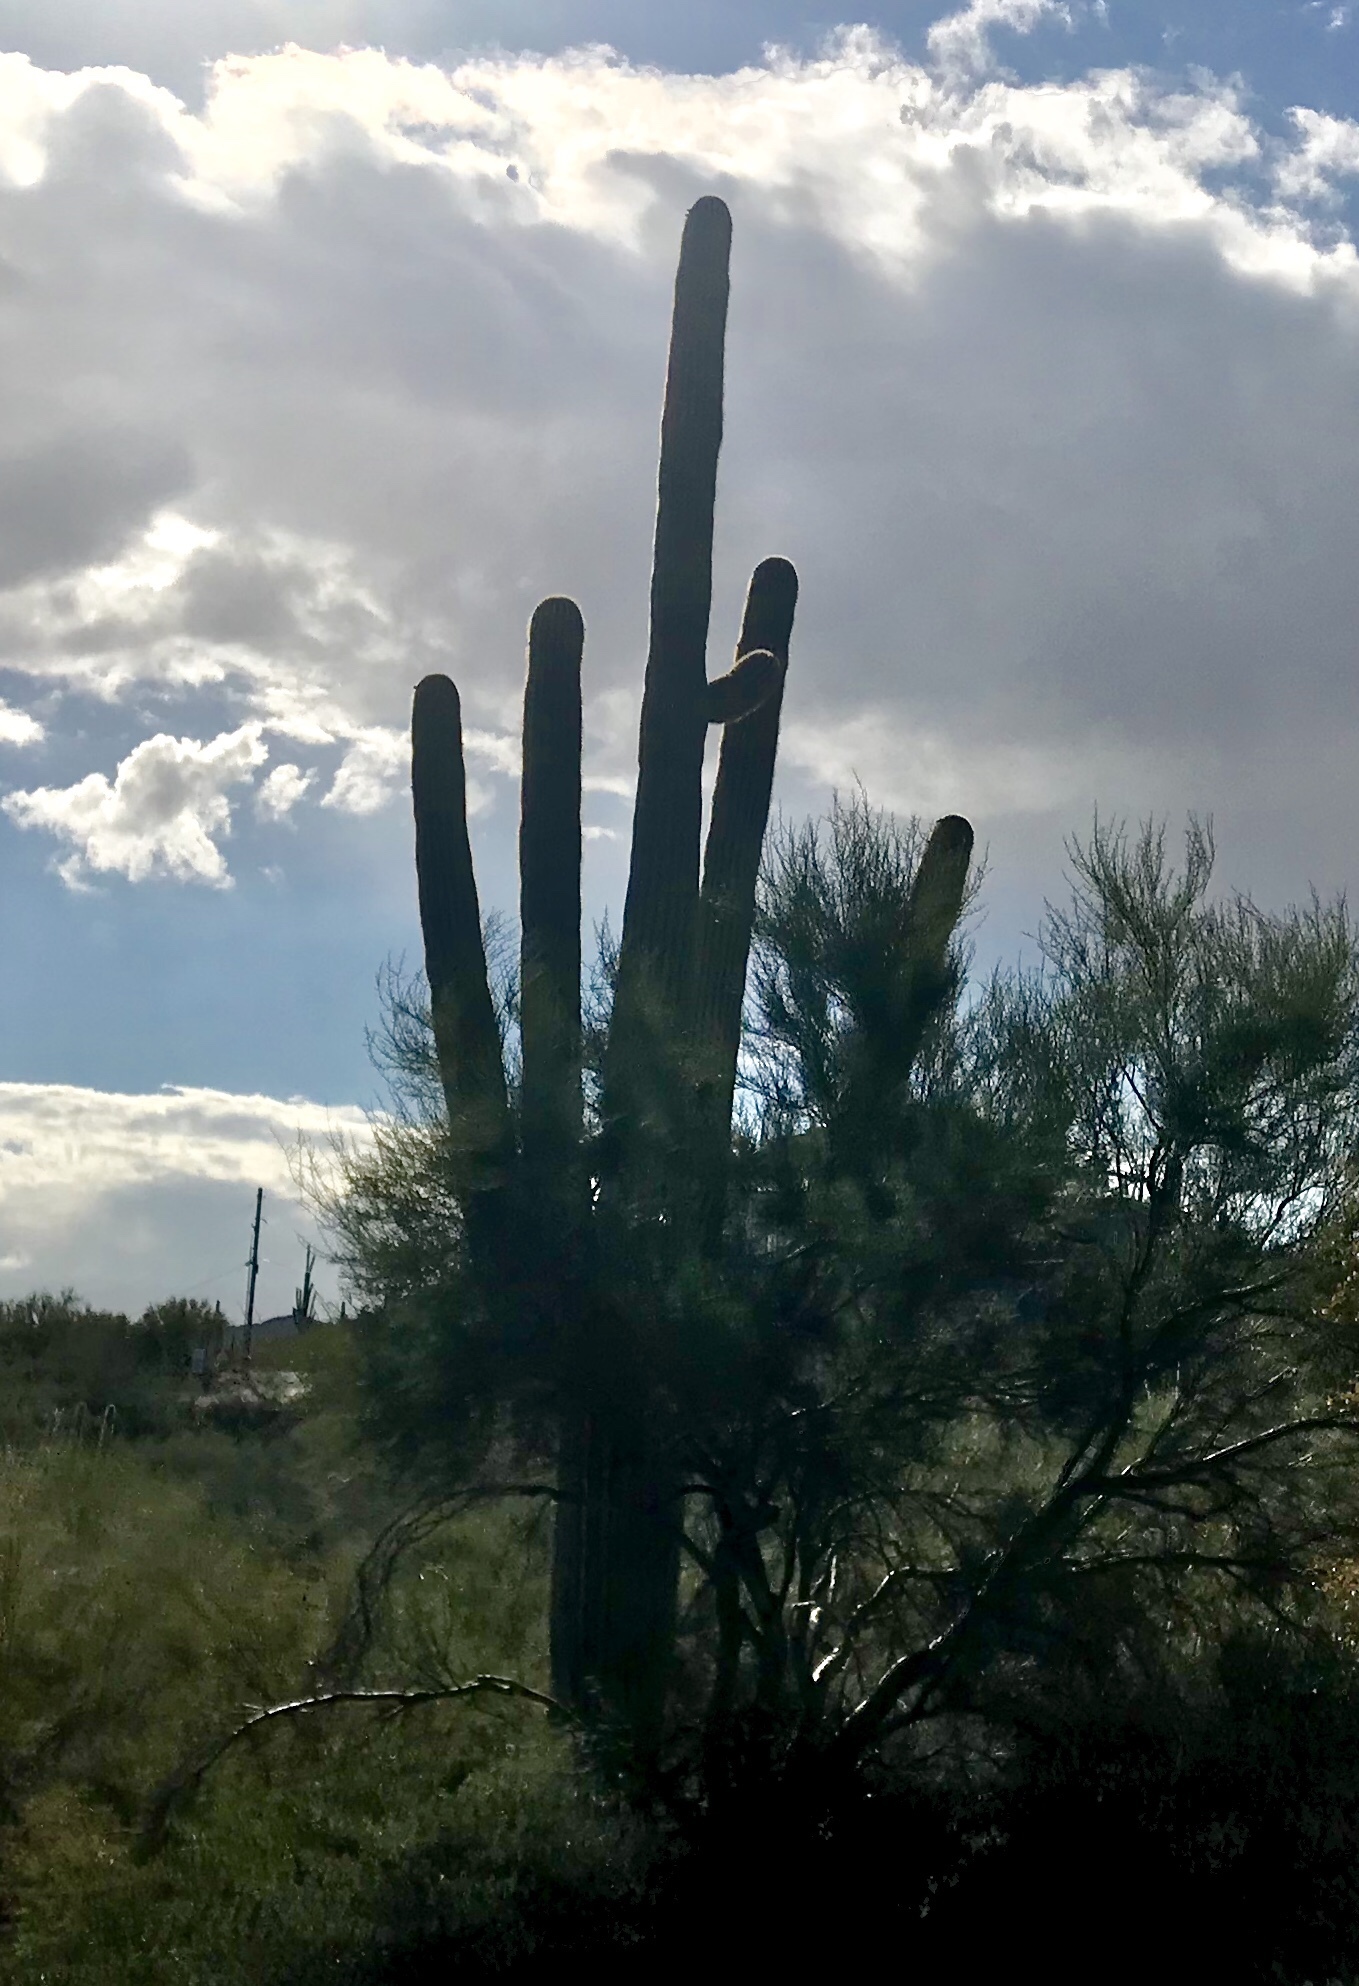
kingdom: Plantae
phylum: Tracheophyta
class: Magnoliopsida
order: Caryophyllales
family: Cactaceae
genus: Carnegiea
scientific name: Carnegiea gigantea
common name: Saguaro
